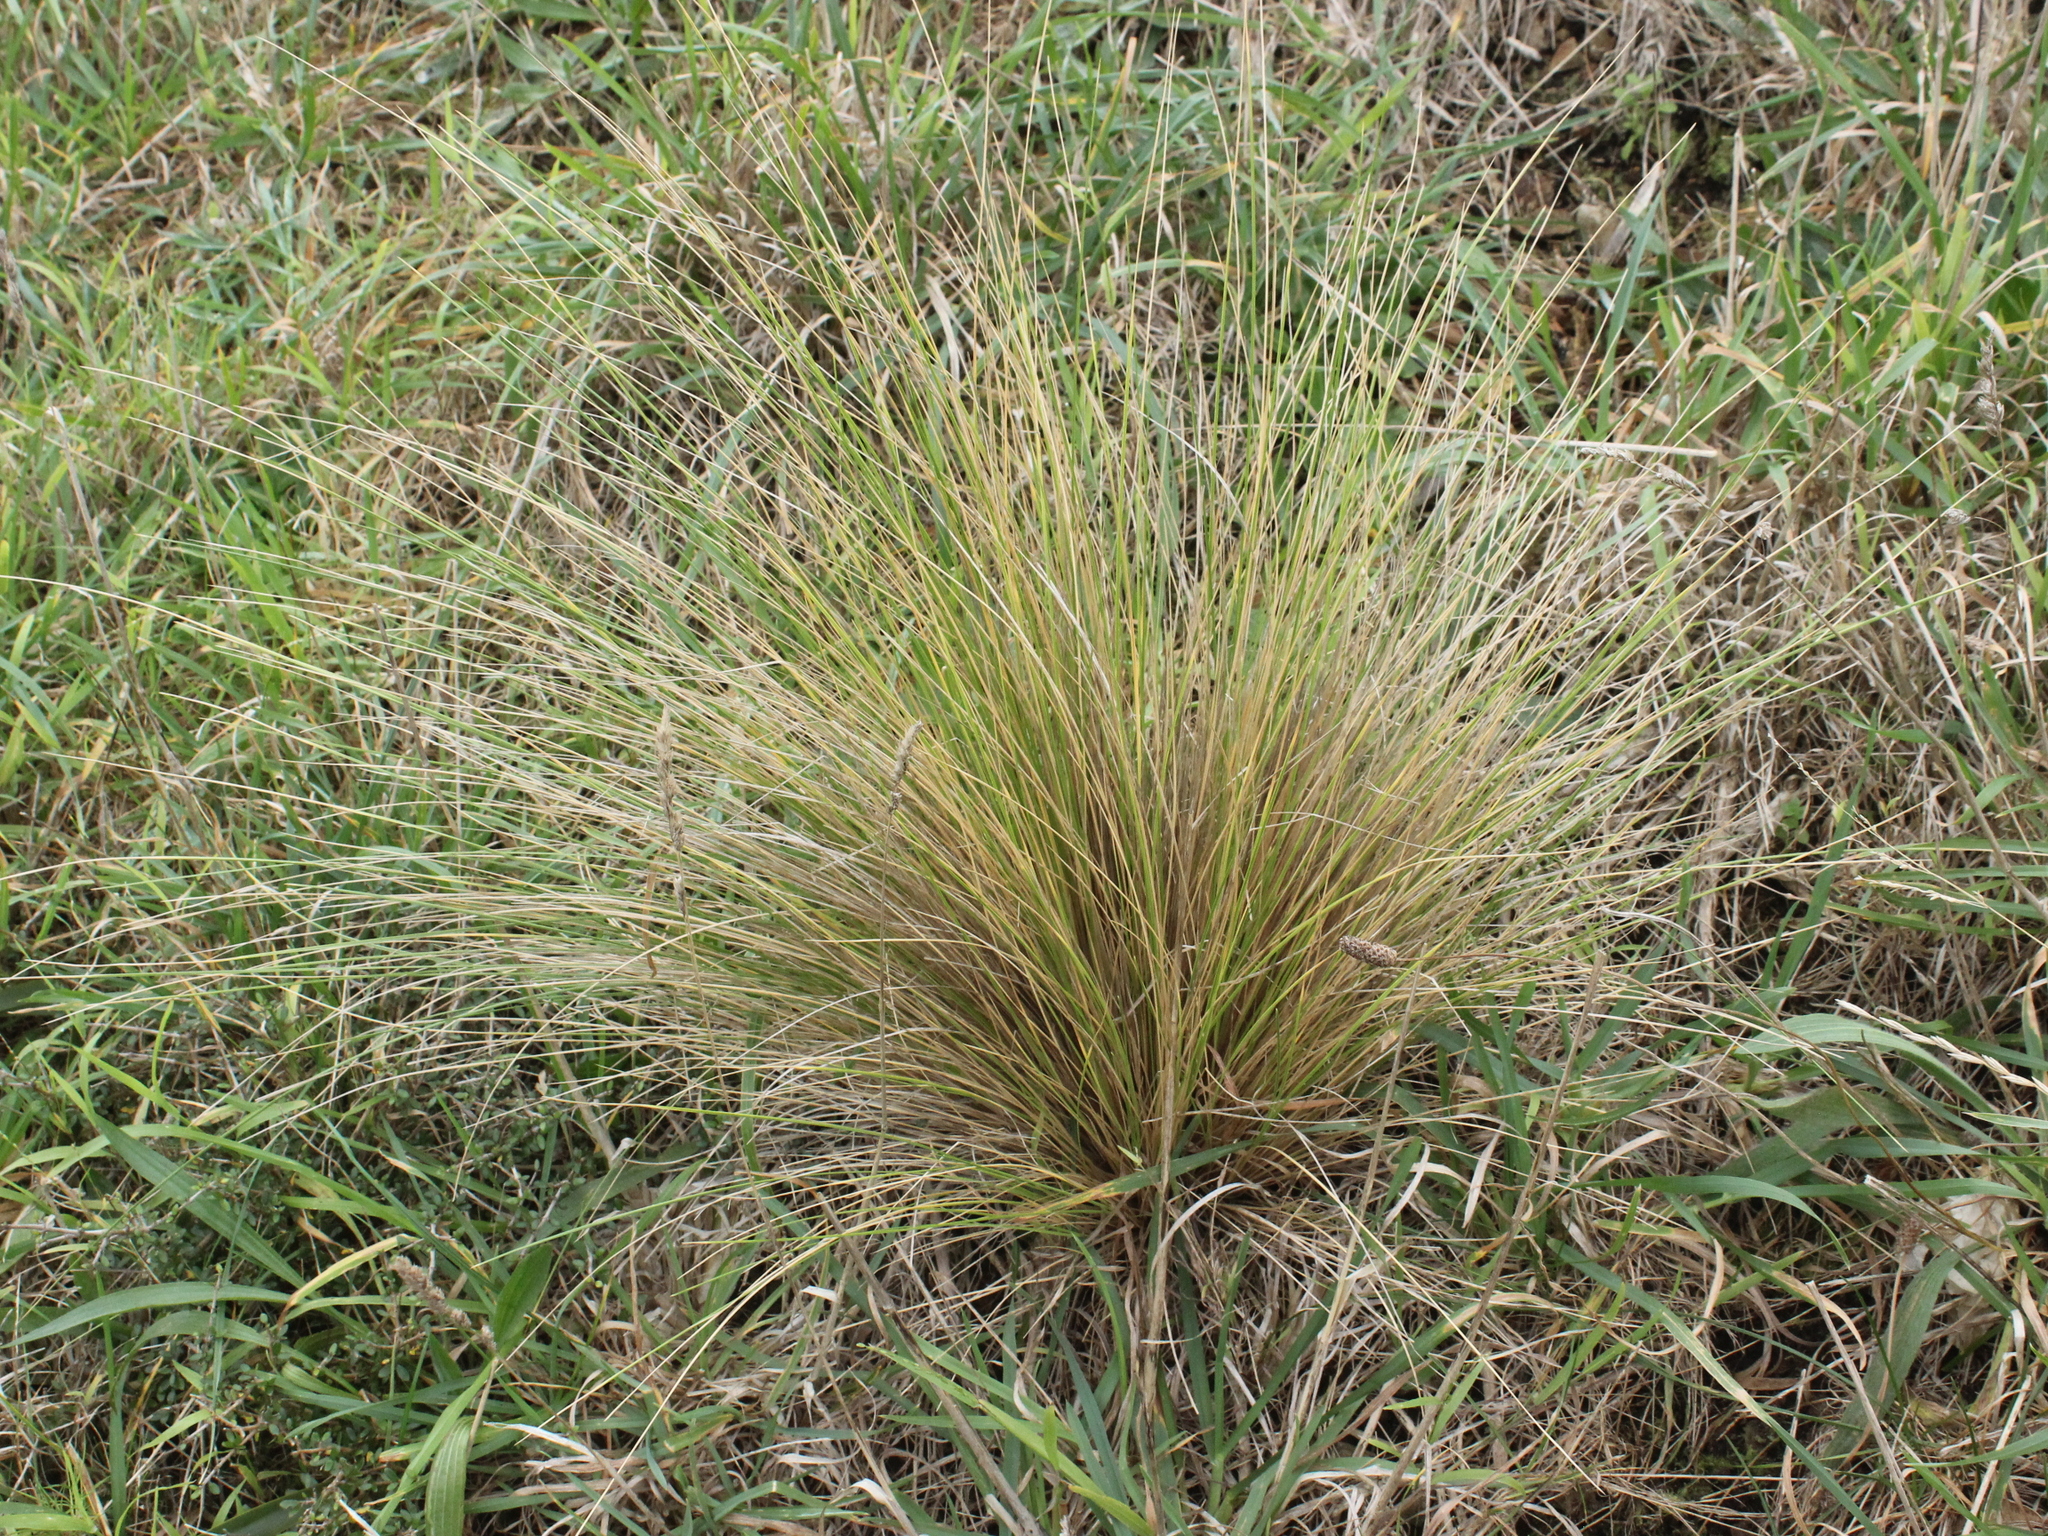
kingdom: Plantae
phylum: Tracheophyta
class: Liliopsida
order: Poales
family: Poaceae
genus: Poa
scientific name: Poa cita
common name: Silver tussock
